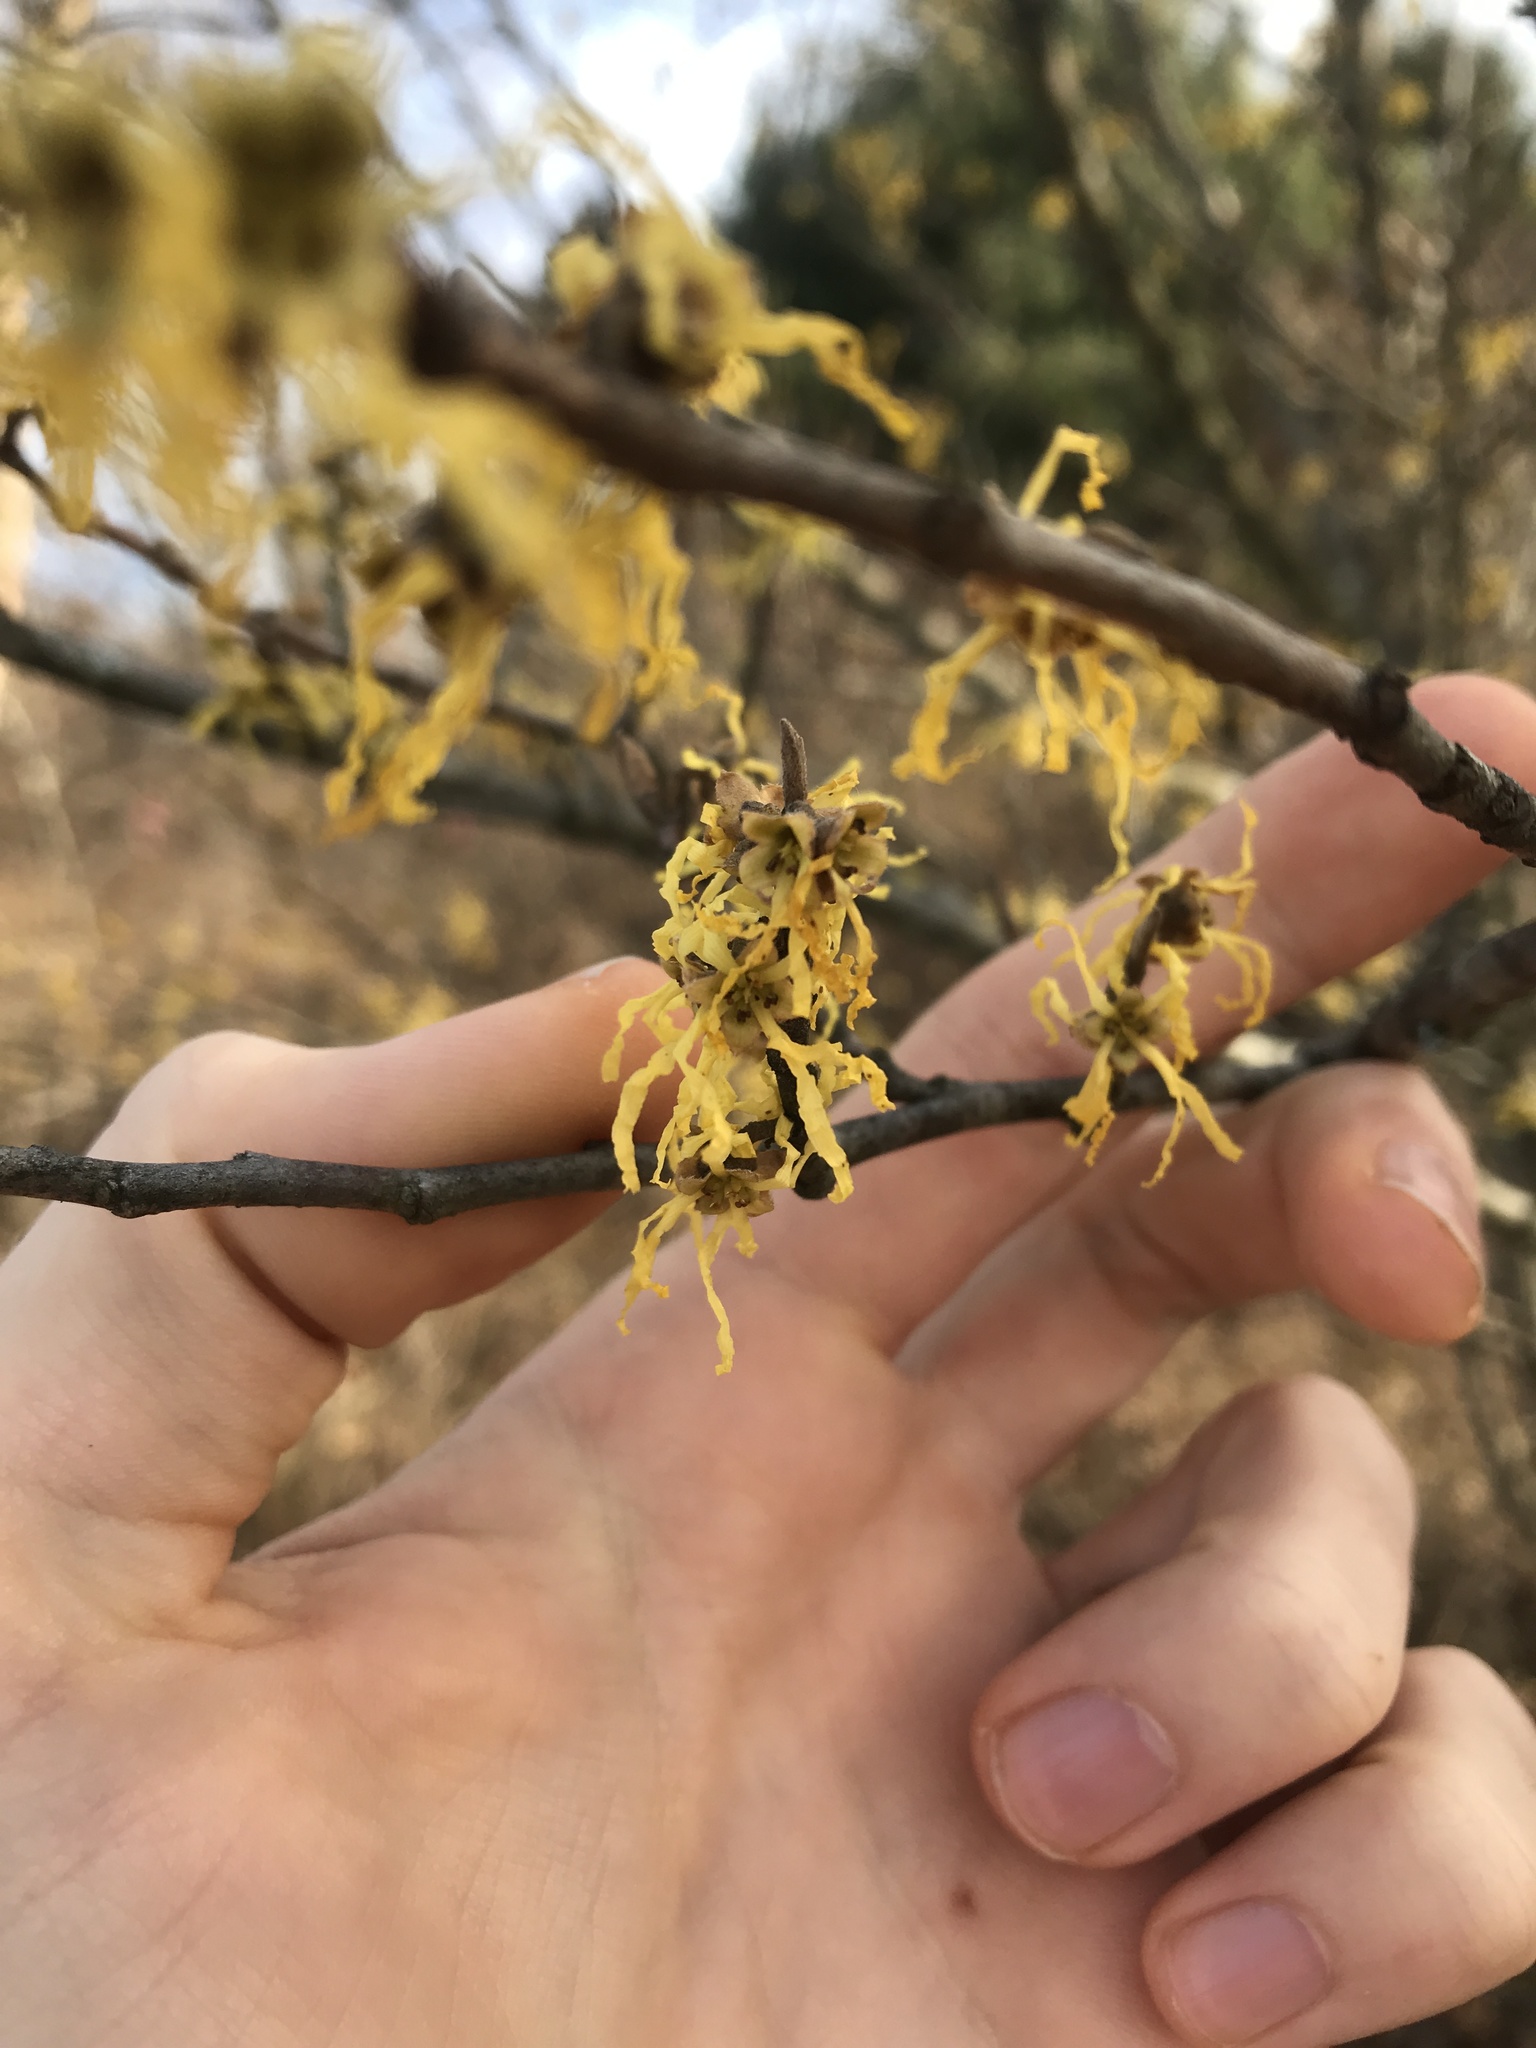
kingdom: Plantae
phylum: Tracheophyta
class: Magnoliopsida
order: Saxifragales
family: Hamamelidaceae
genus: Hamamelis
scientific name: Hamamelis virginiana
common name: Witch-hazel
